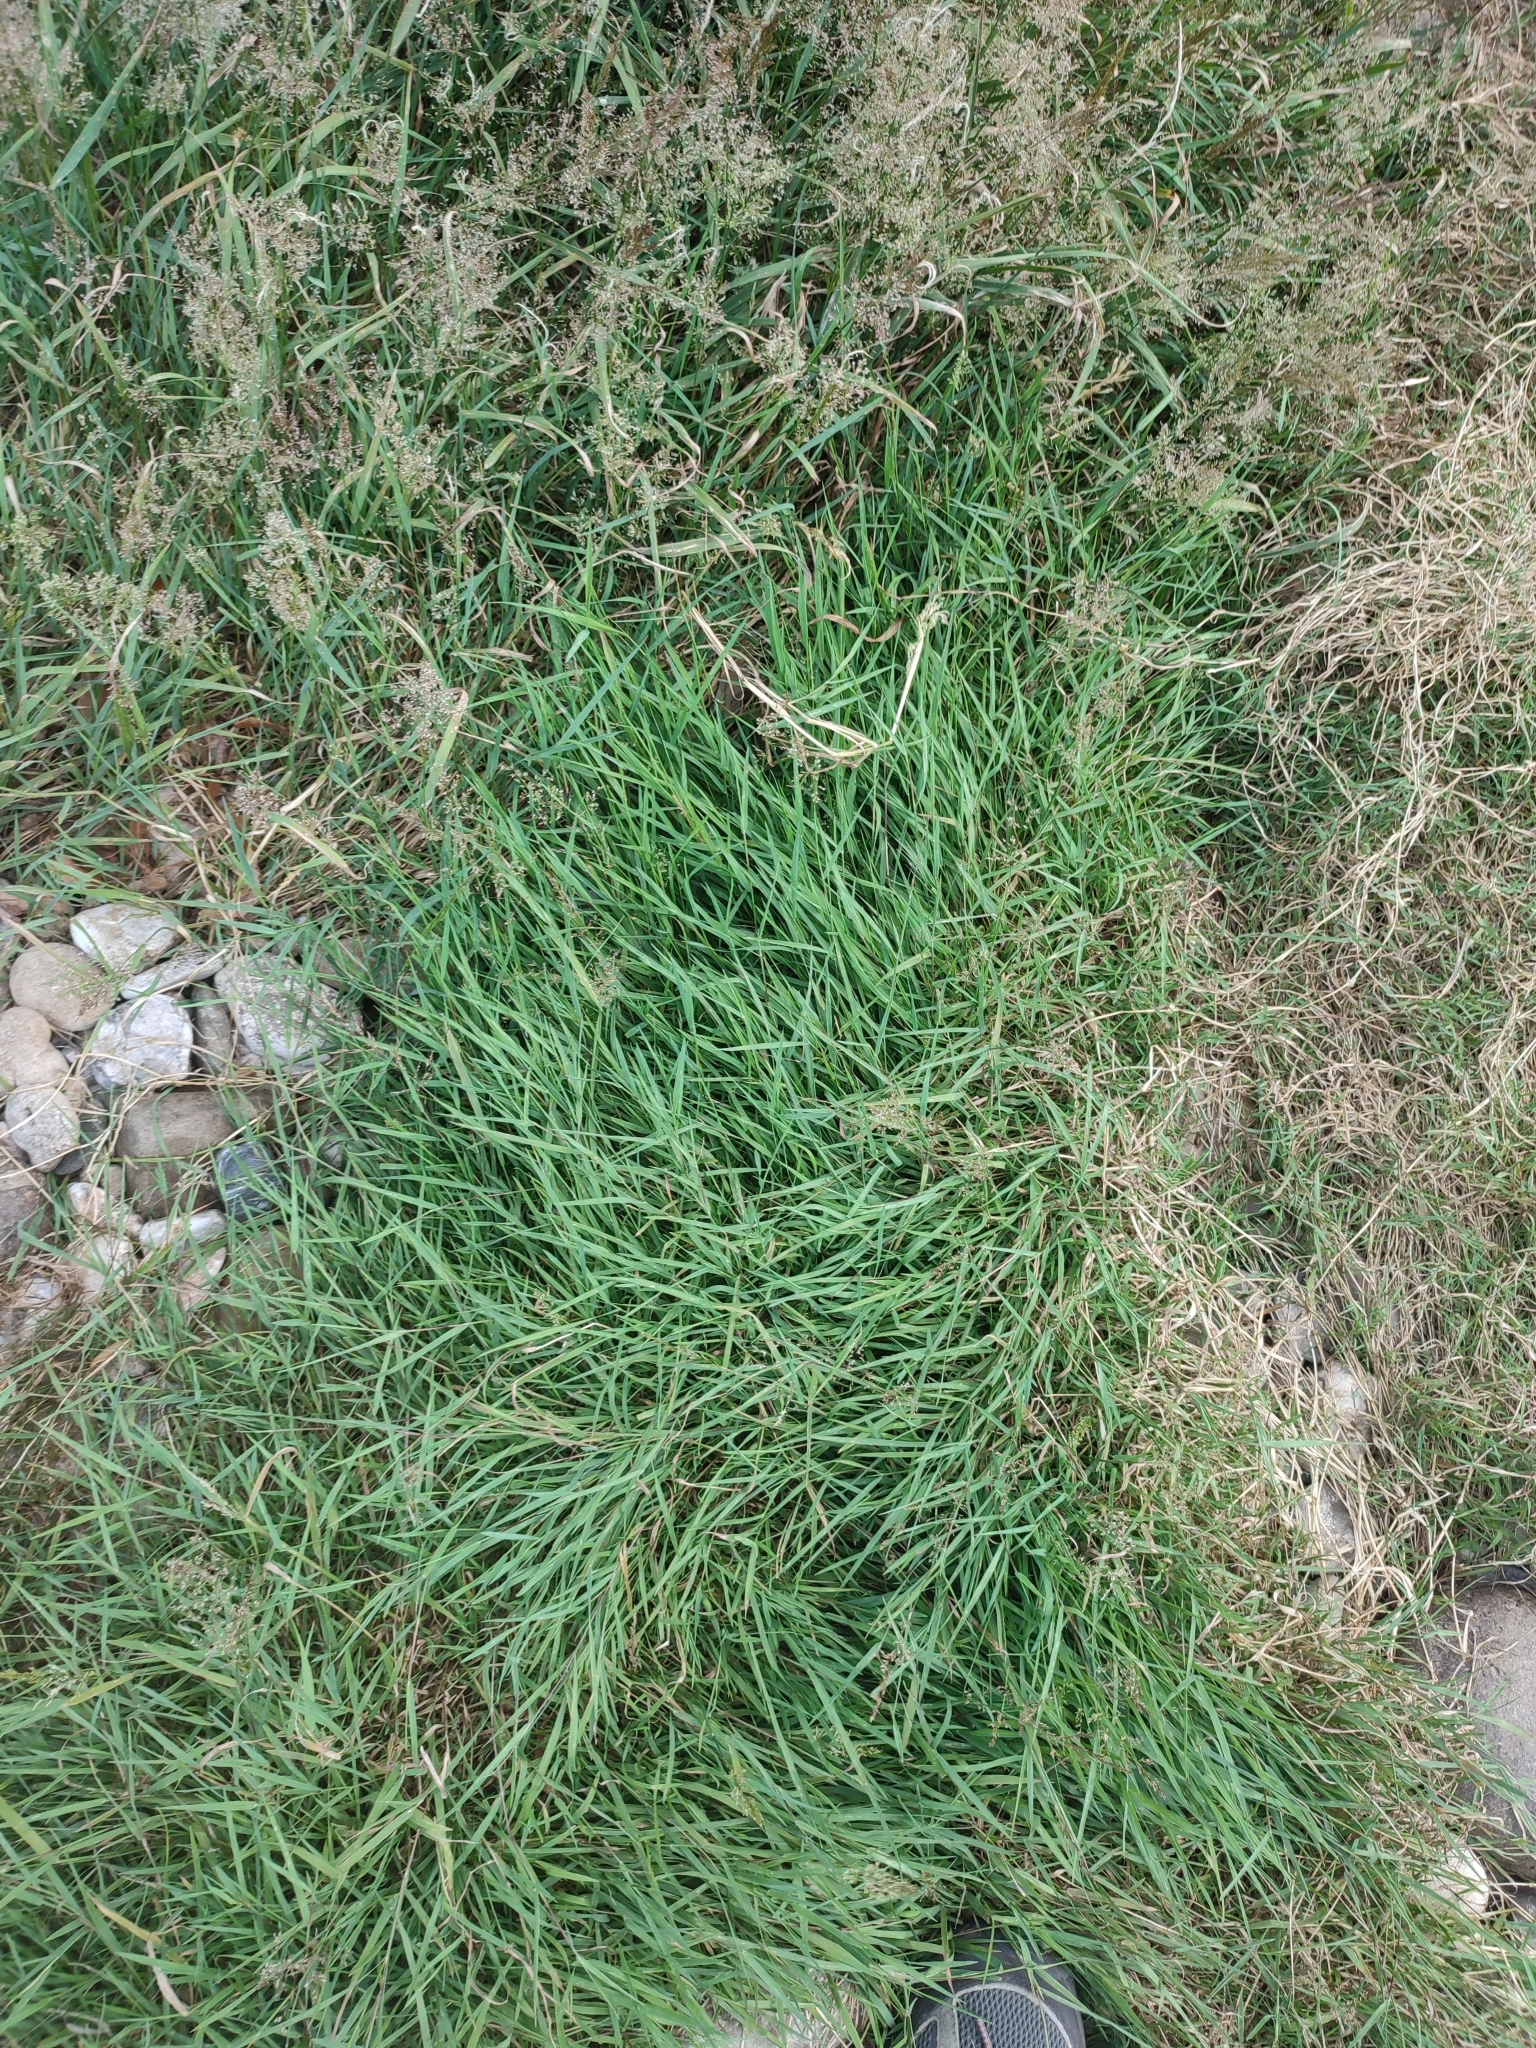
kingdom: Plantae
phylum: Tracheophyta
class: Liliopsida
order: Poales
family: Poaceae
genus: Agrostis
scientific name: Agrostis stolonifera
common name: Creeping bentgrass
